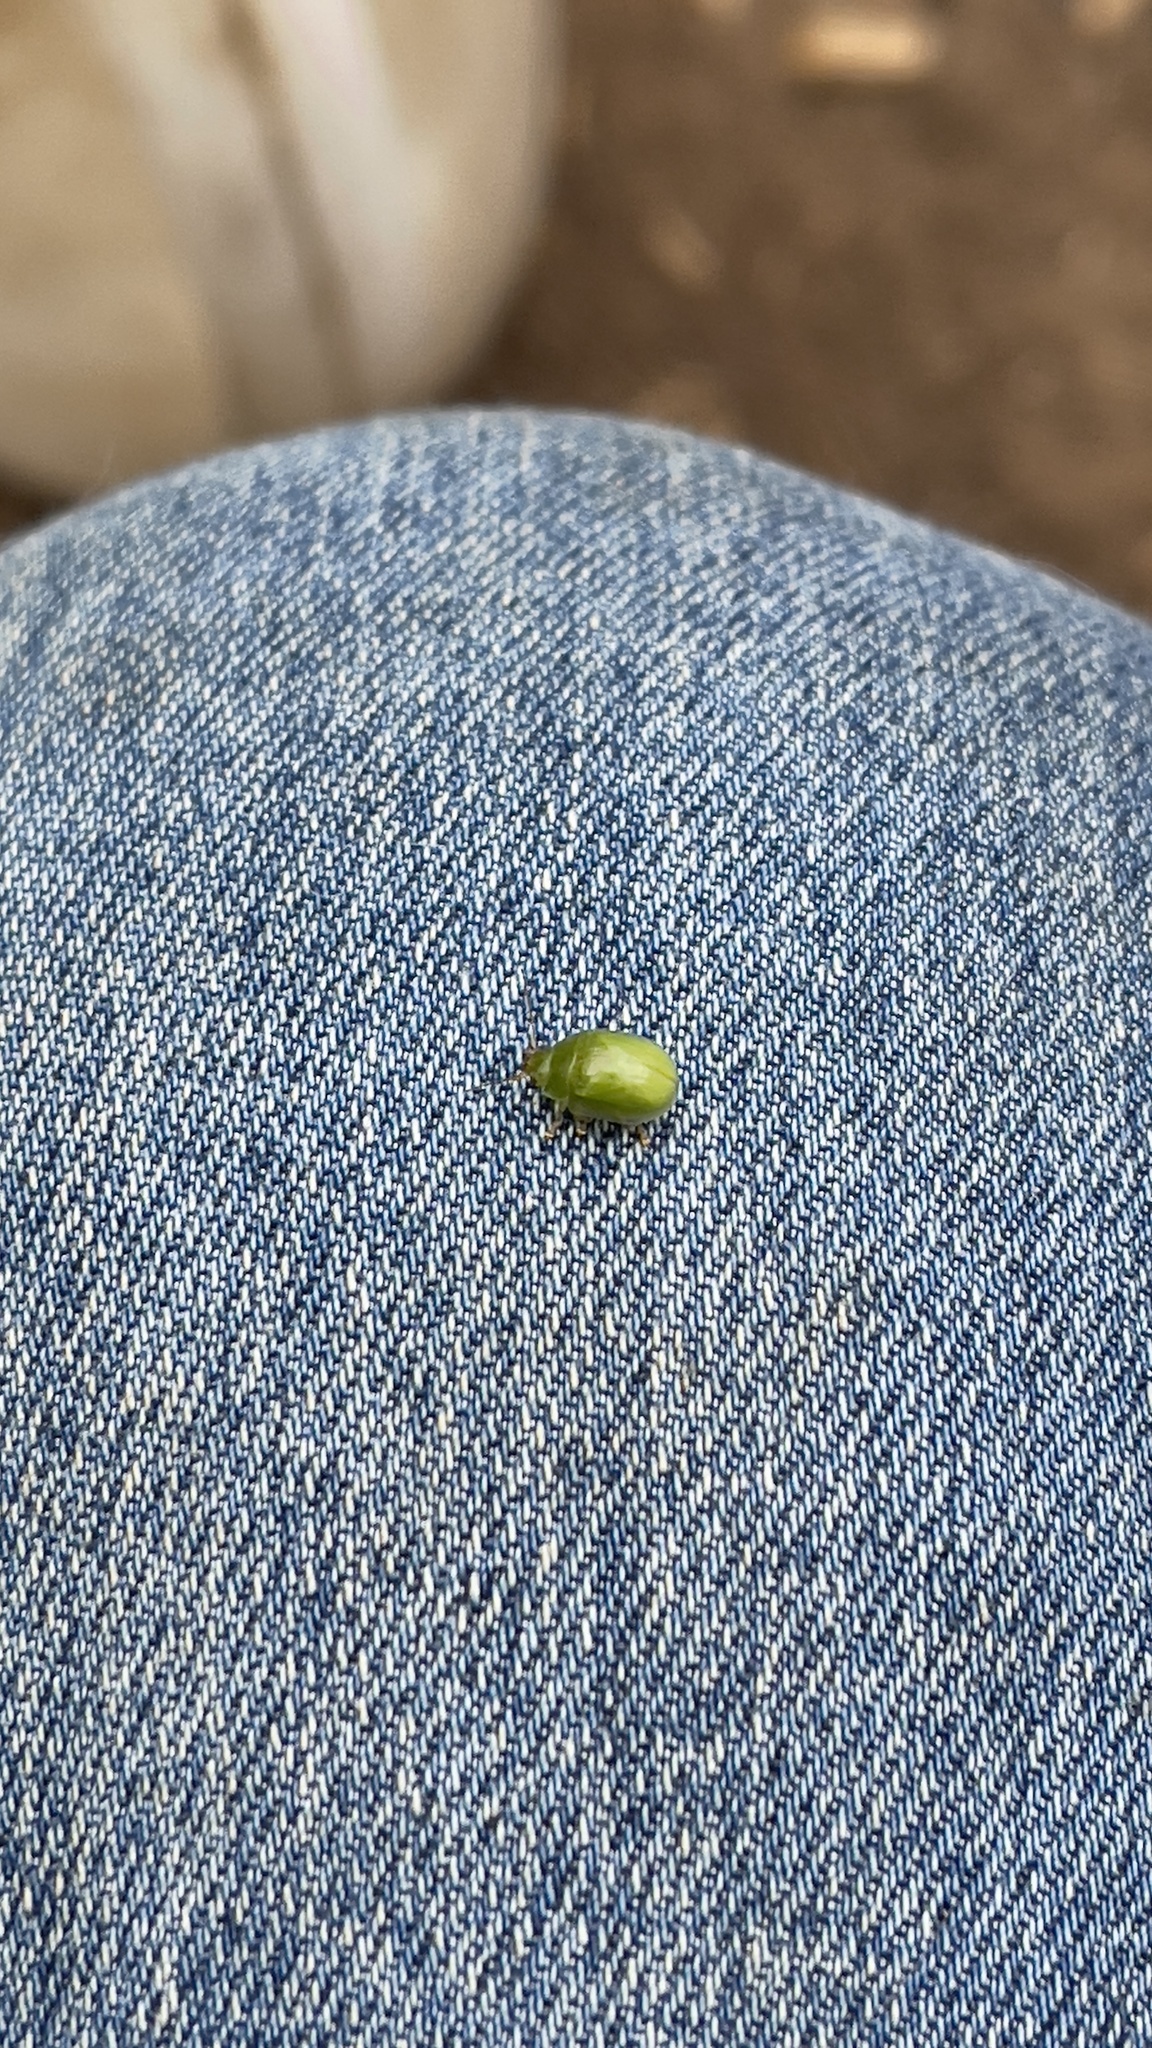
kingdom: Animalia
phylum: Arthropoda
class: Insecta
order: Coleoptera
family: Chrysomelidae
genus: Paropsides
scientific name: Paropsides
